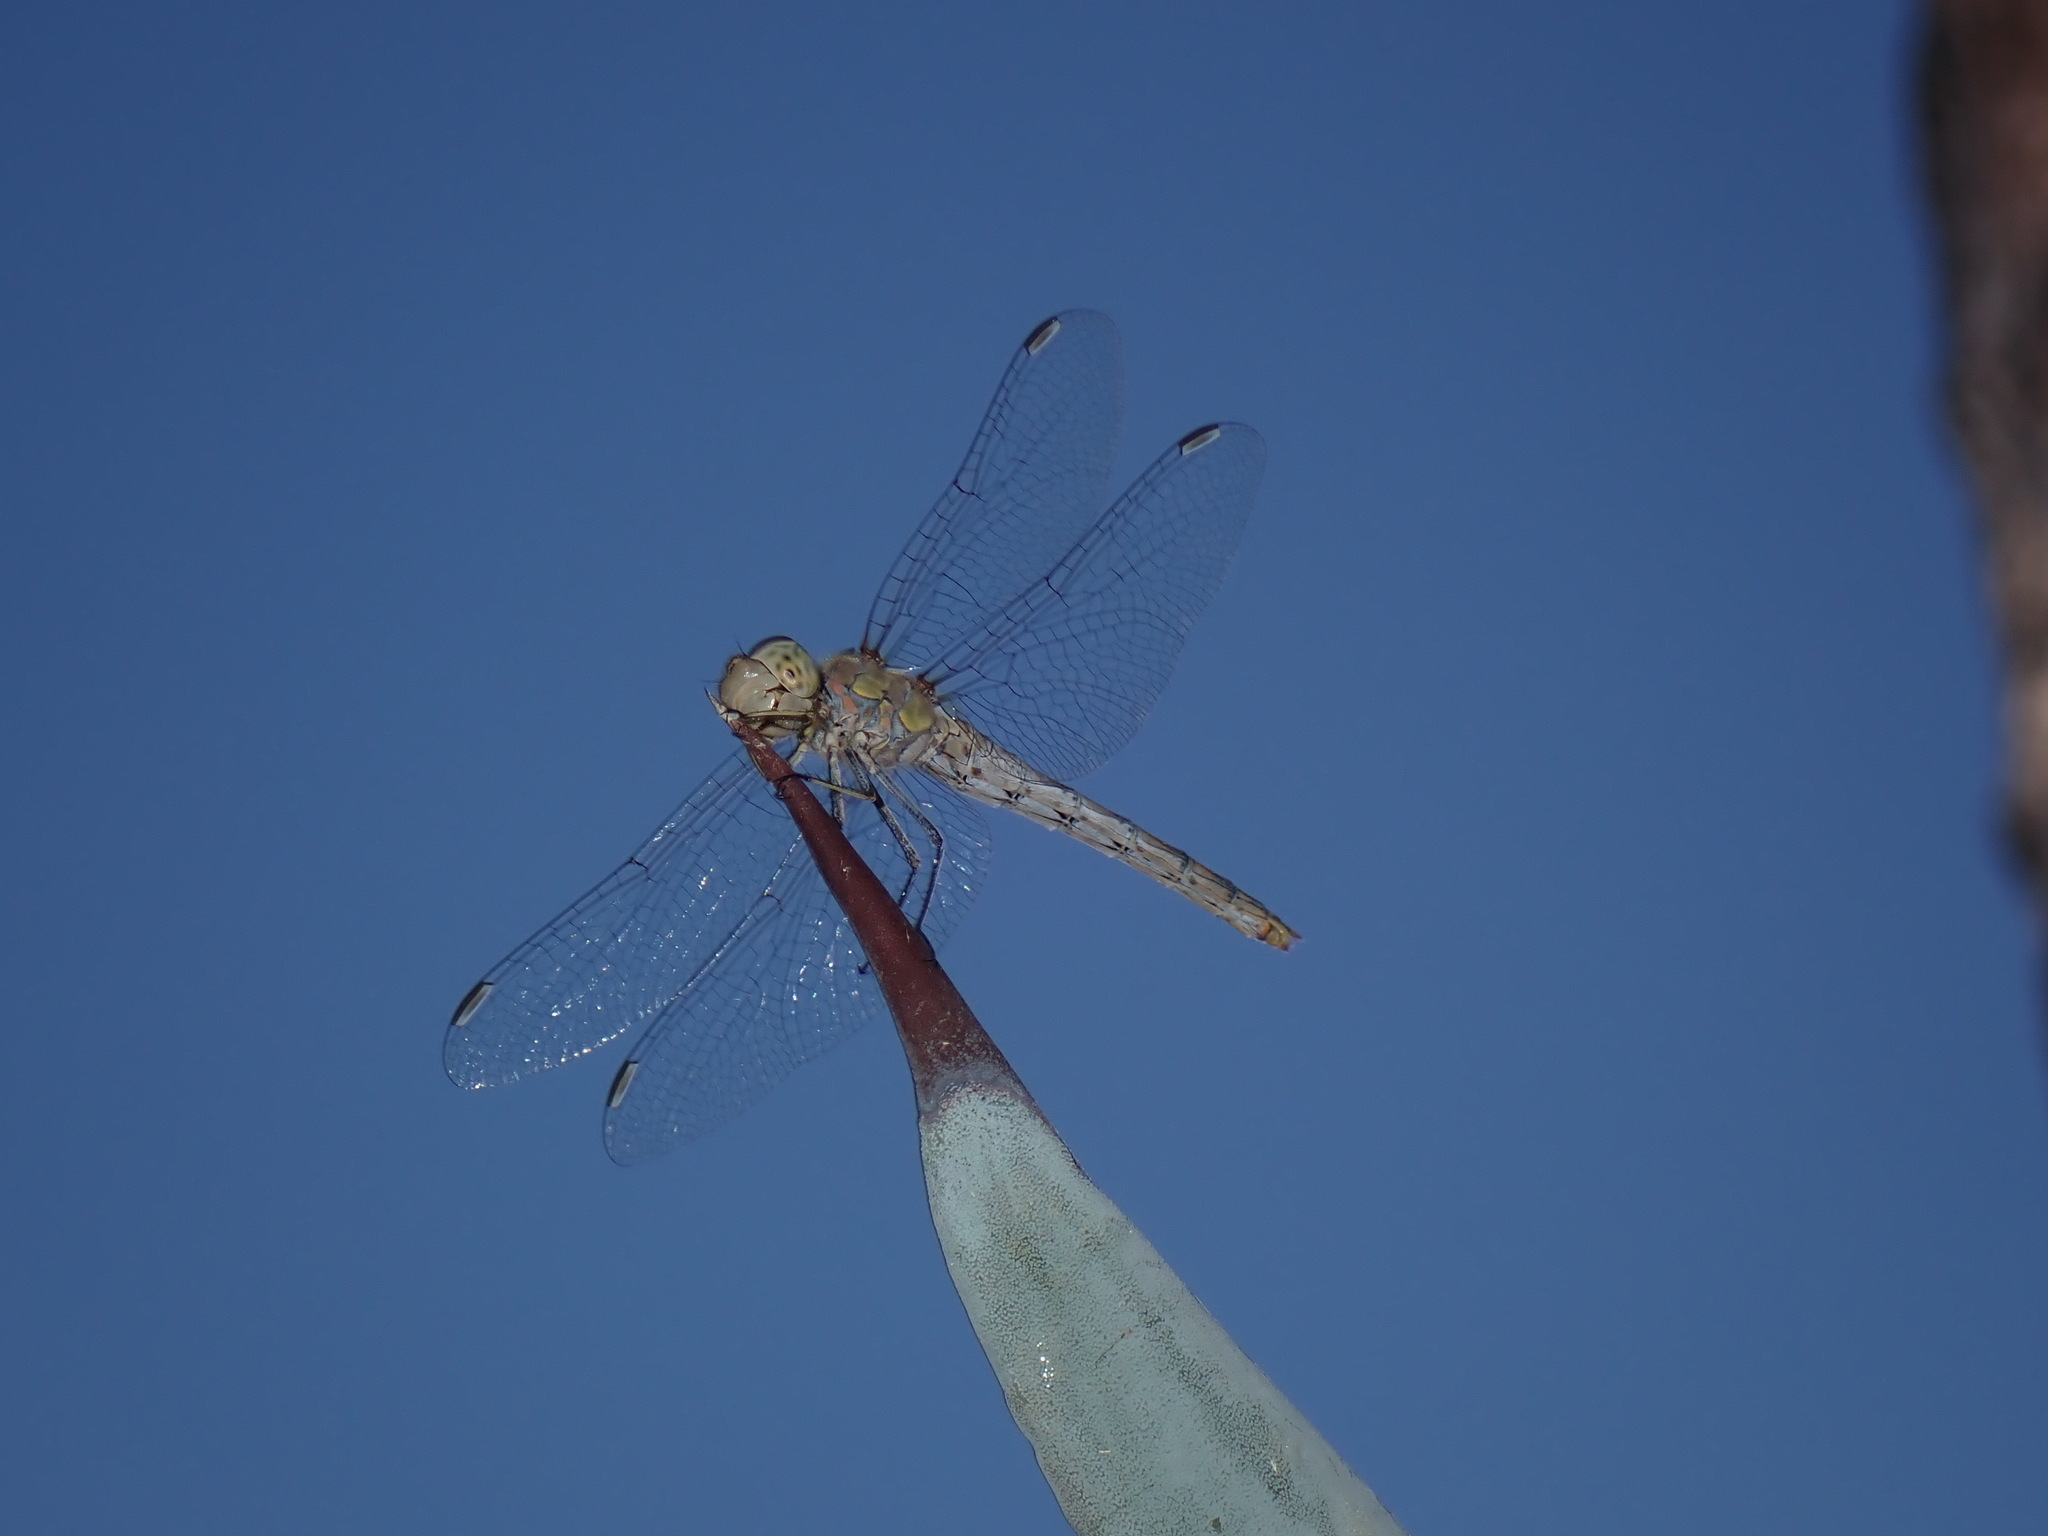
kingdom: Animalia
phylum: Arthropoda
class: Insecta
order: Odonata
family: Libellulidae
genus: Sympetrum
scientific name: Sympetrum striolatum
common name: Common darter
